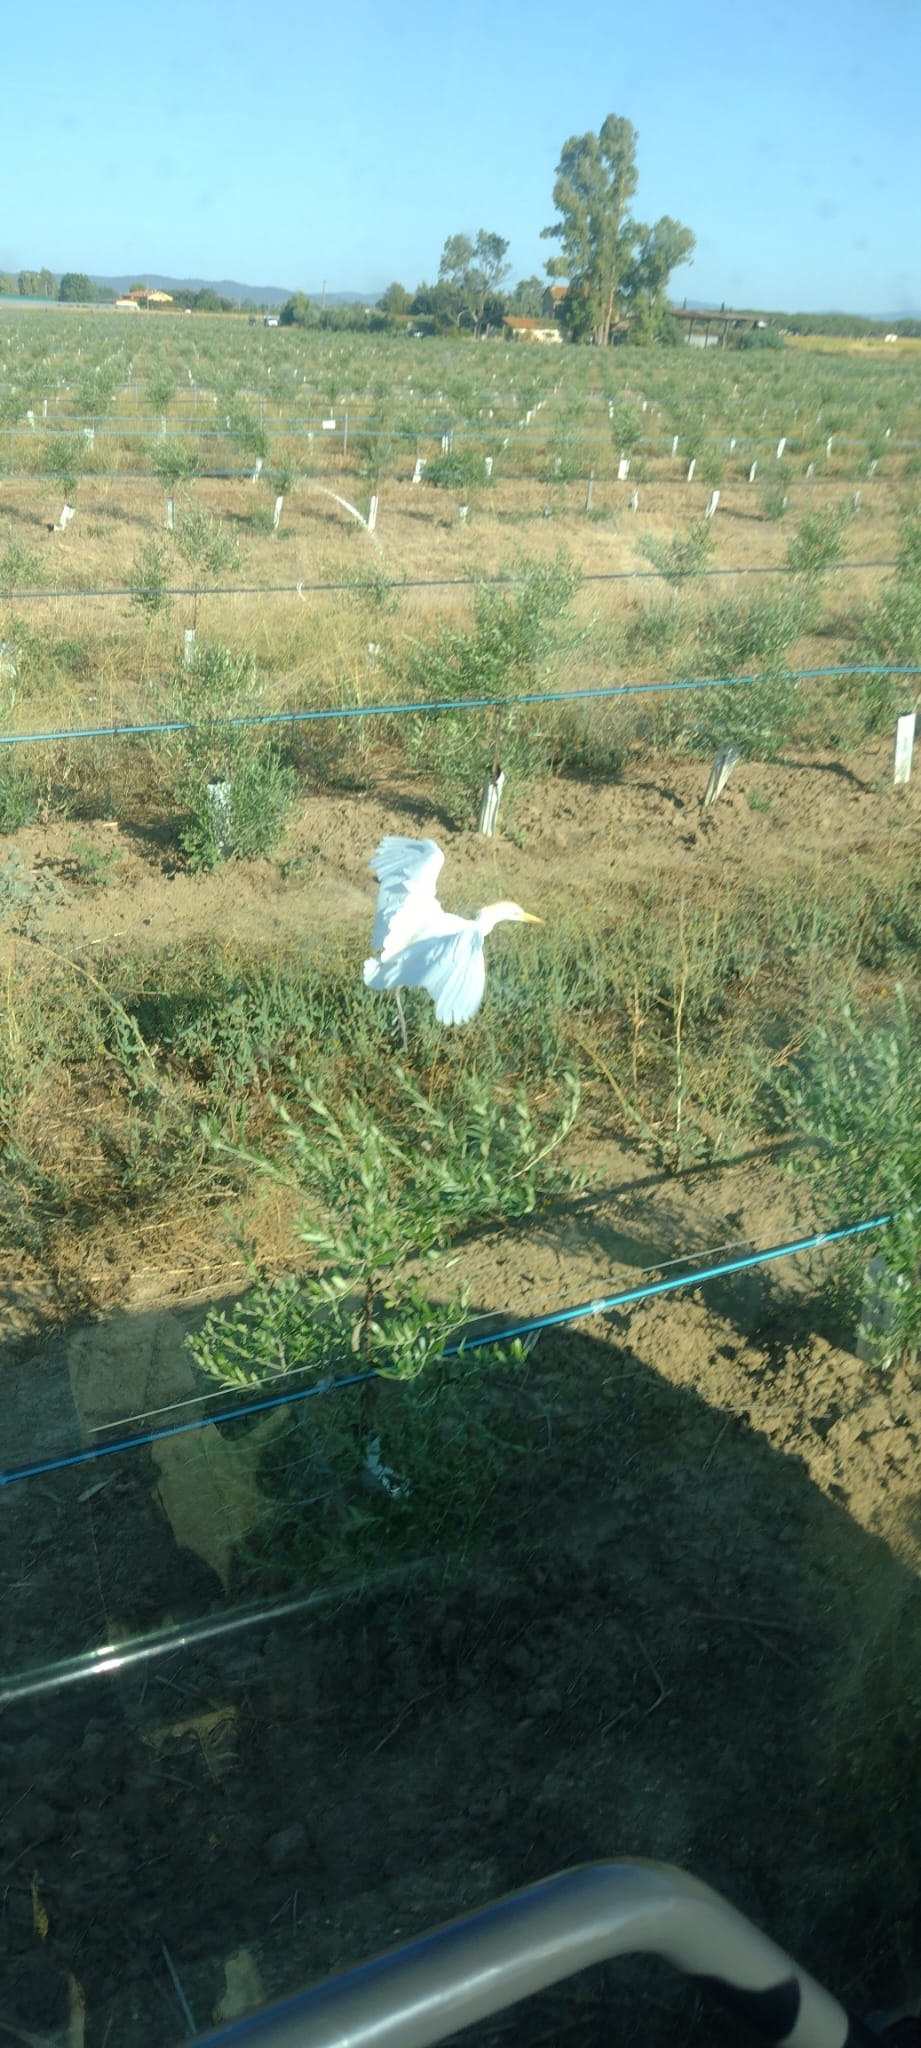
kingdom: Animalia
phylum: Chordata
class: Aves
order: Pelecaniformes
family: Ardeidae
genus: Bubulcus
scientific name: Bubulcus ibis
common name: Cattle egret
